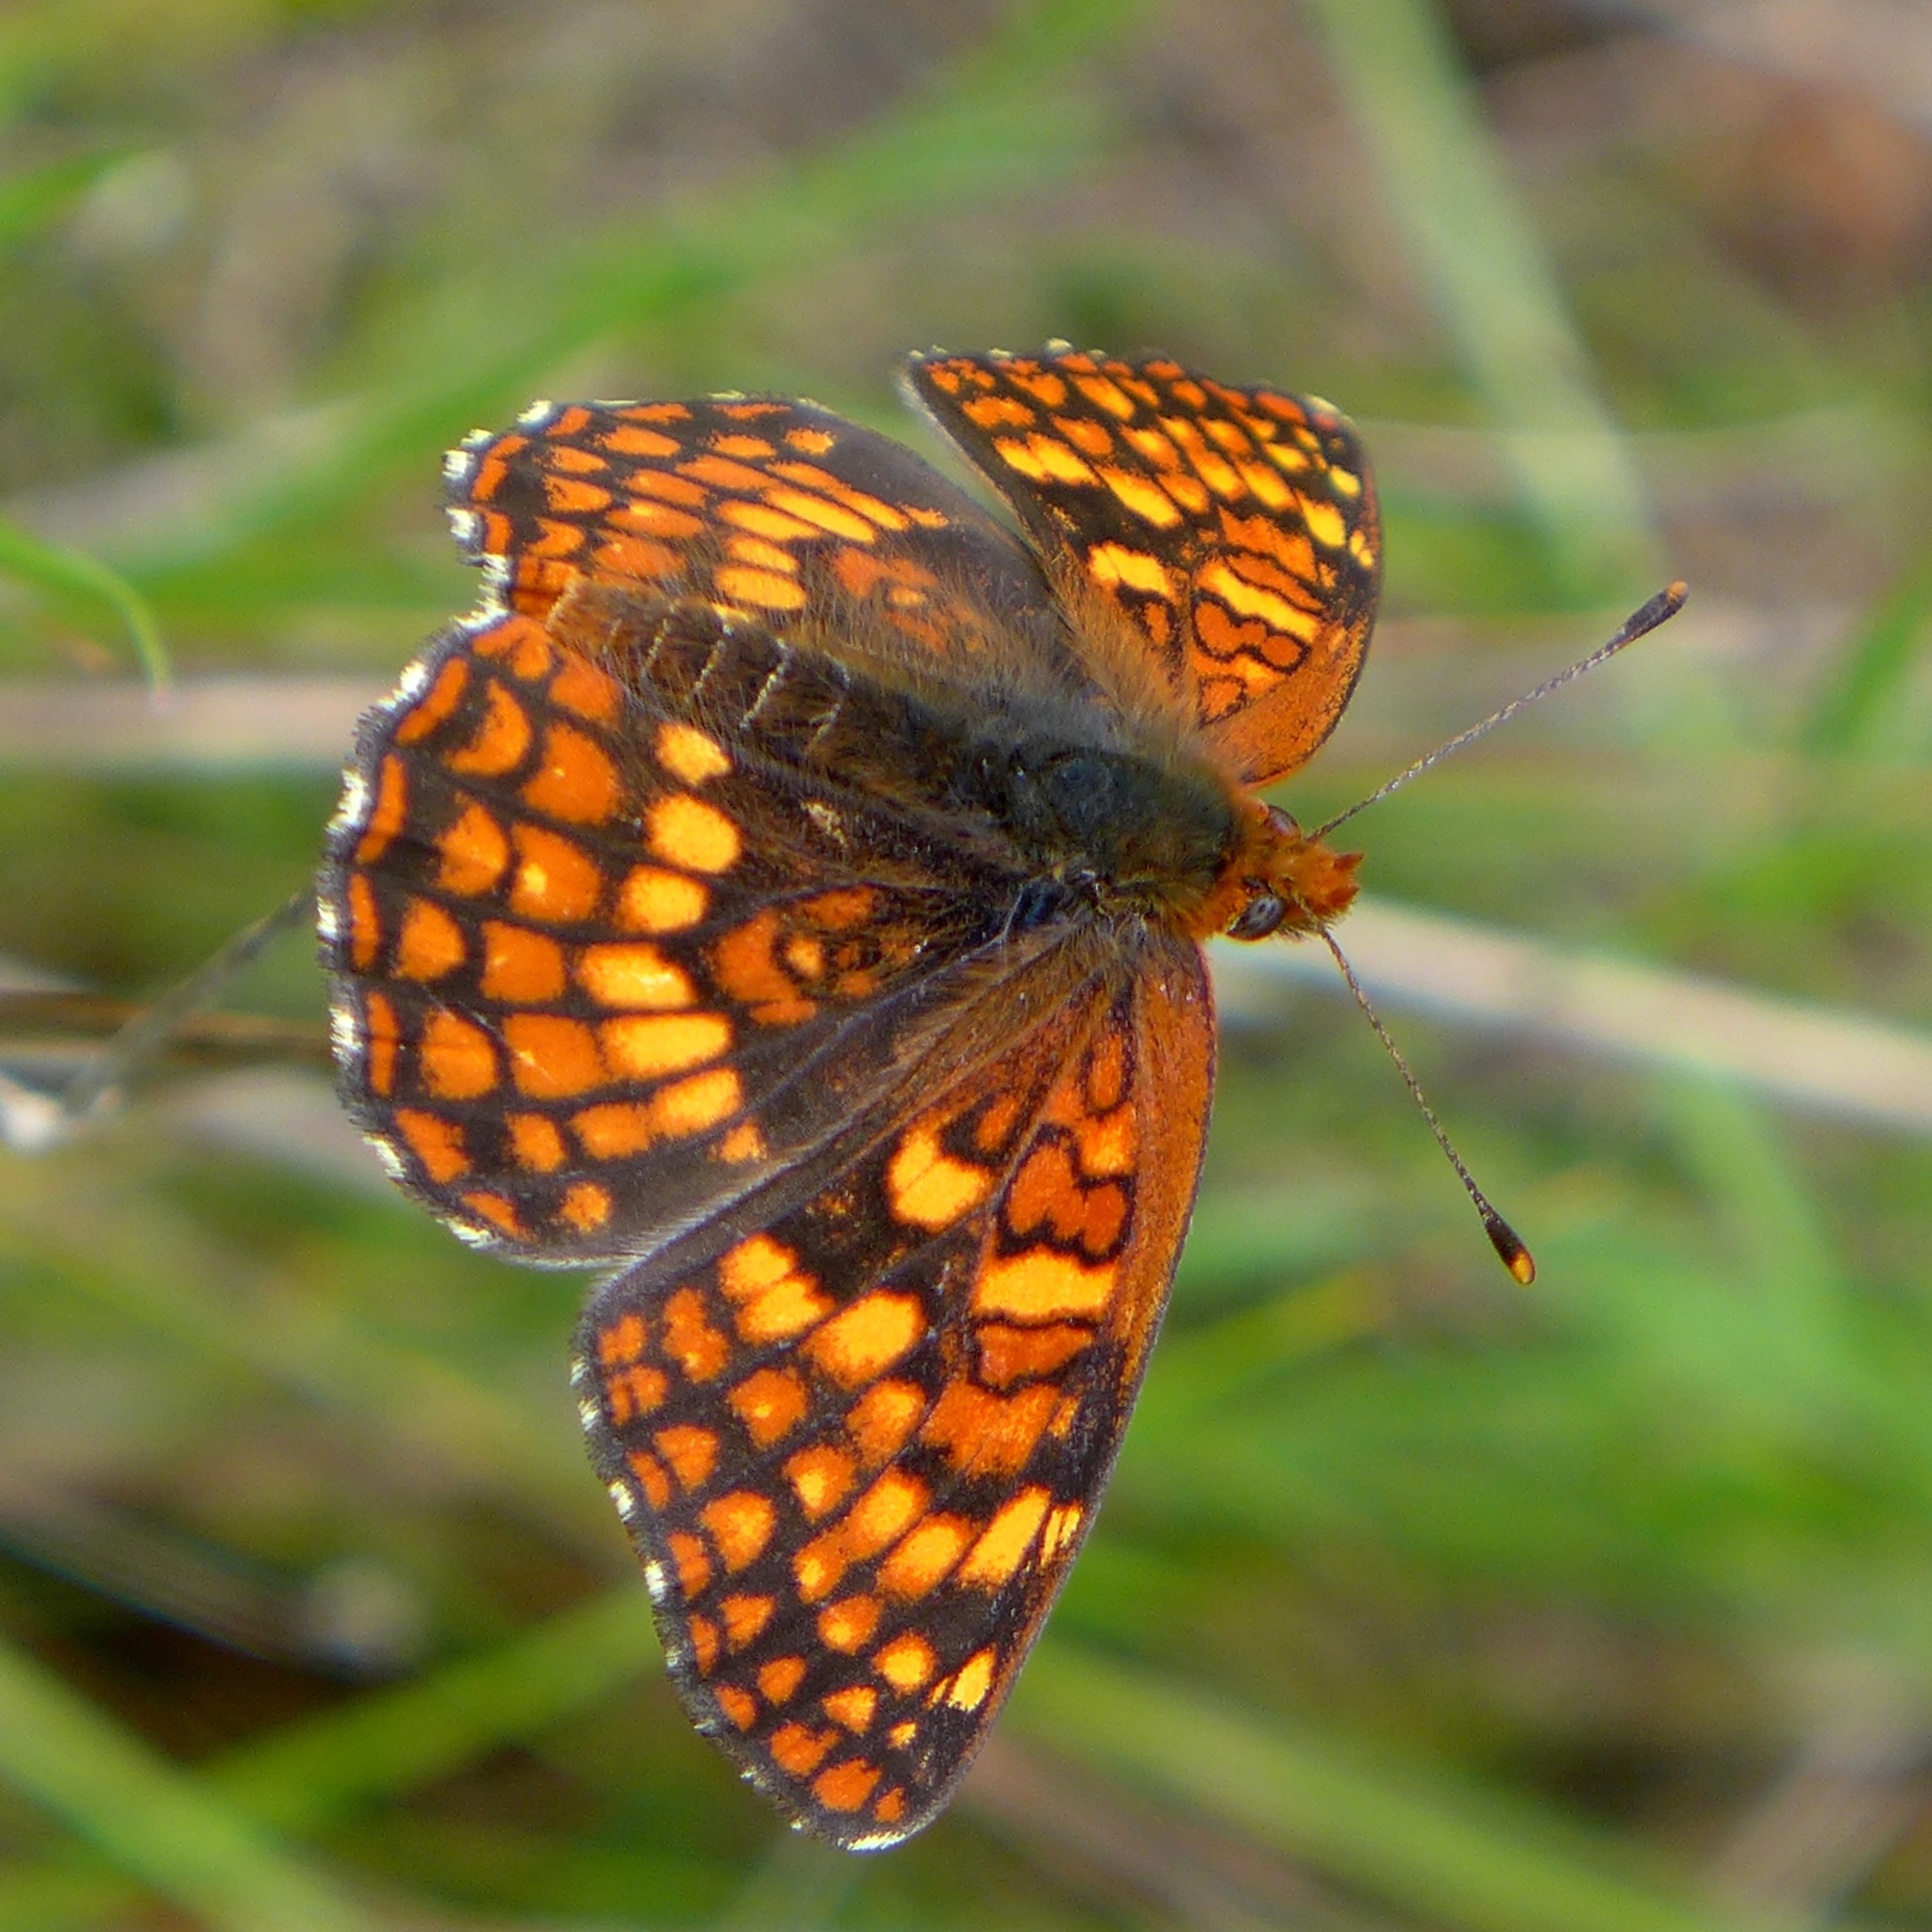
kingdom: Animalia
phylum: Arthropoda
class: Insecta
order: Lepidoptera
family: Nymphalidae
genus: Chlosyne
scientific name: Chlosyne palla
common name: Northern checkerspot
